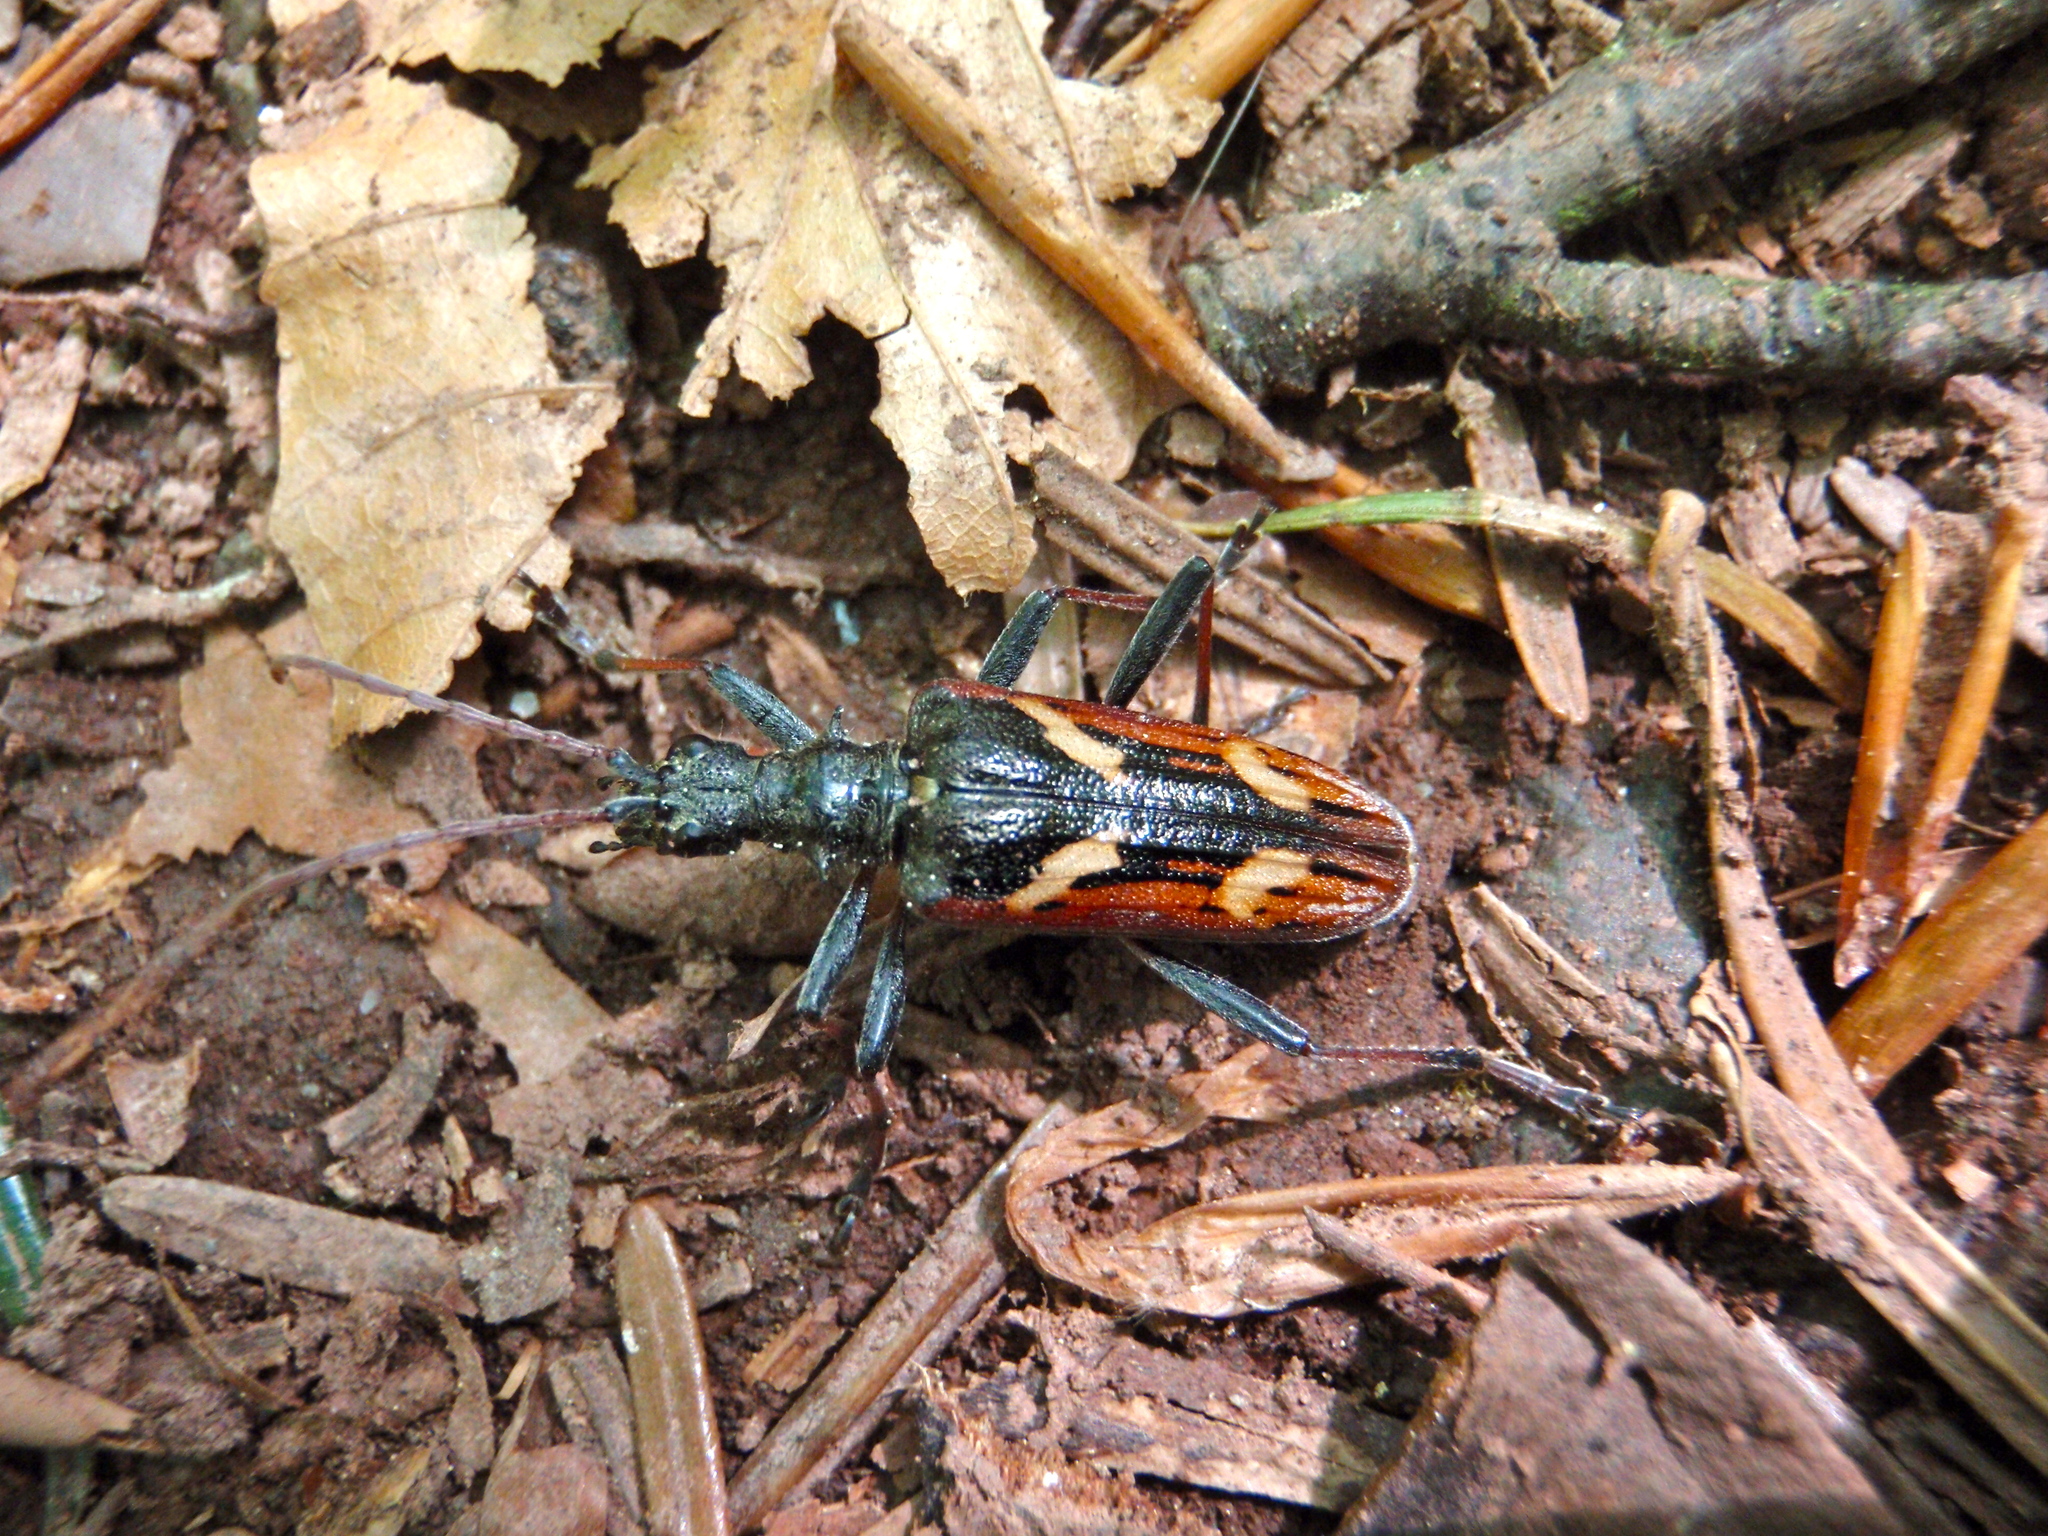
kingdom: Animalia
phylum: Arthropoda
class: Insecta
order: Coleoptera
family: Cerambycidae
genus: Rhagium
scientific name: Rhagium bifasciatum
